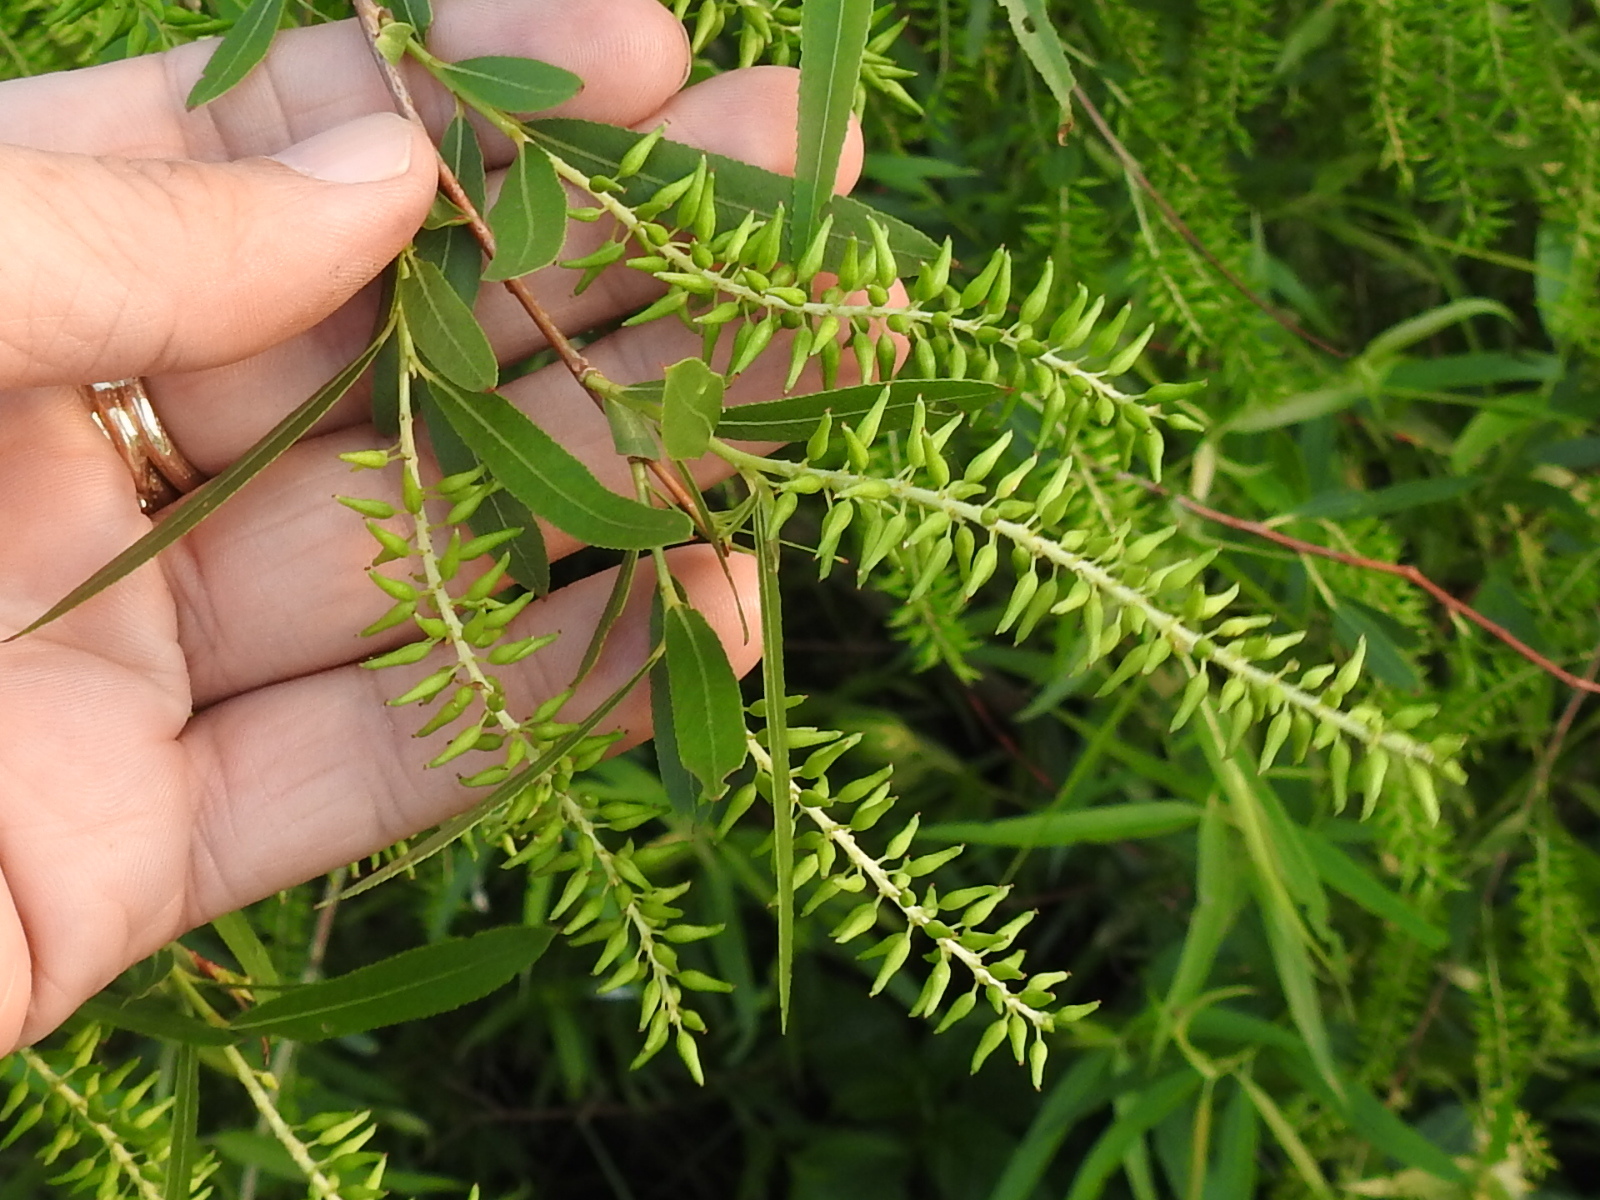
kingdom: Plantae
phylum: Tracheophyta
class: Magnoliopsida
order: Malpighiales
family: Salicaceae
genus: Salix
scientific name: Salix nigra
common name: Black willow
